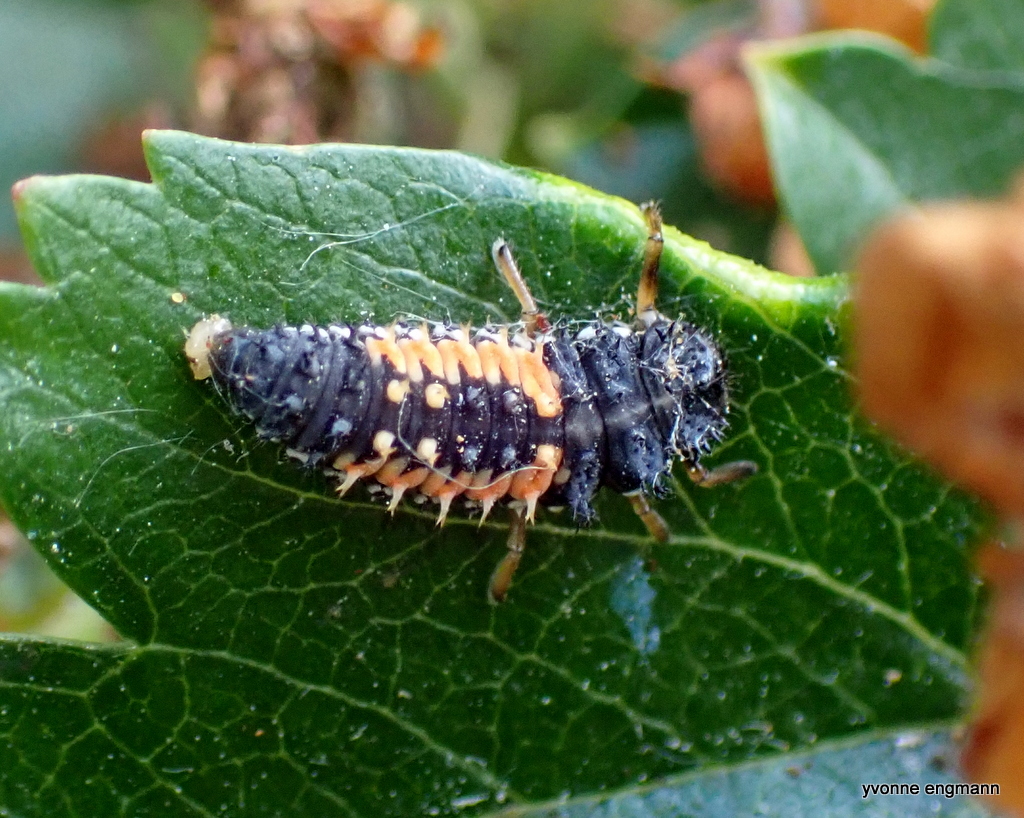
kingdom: Animalia
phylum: Arthropoda
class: Insecta
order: Coleoptera
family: Coccinellidae
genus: Harmonia
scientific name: Harmonia axyridis
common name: Harlequin ladybird
